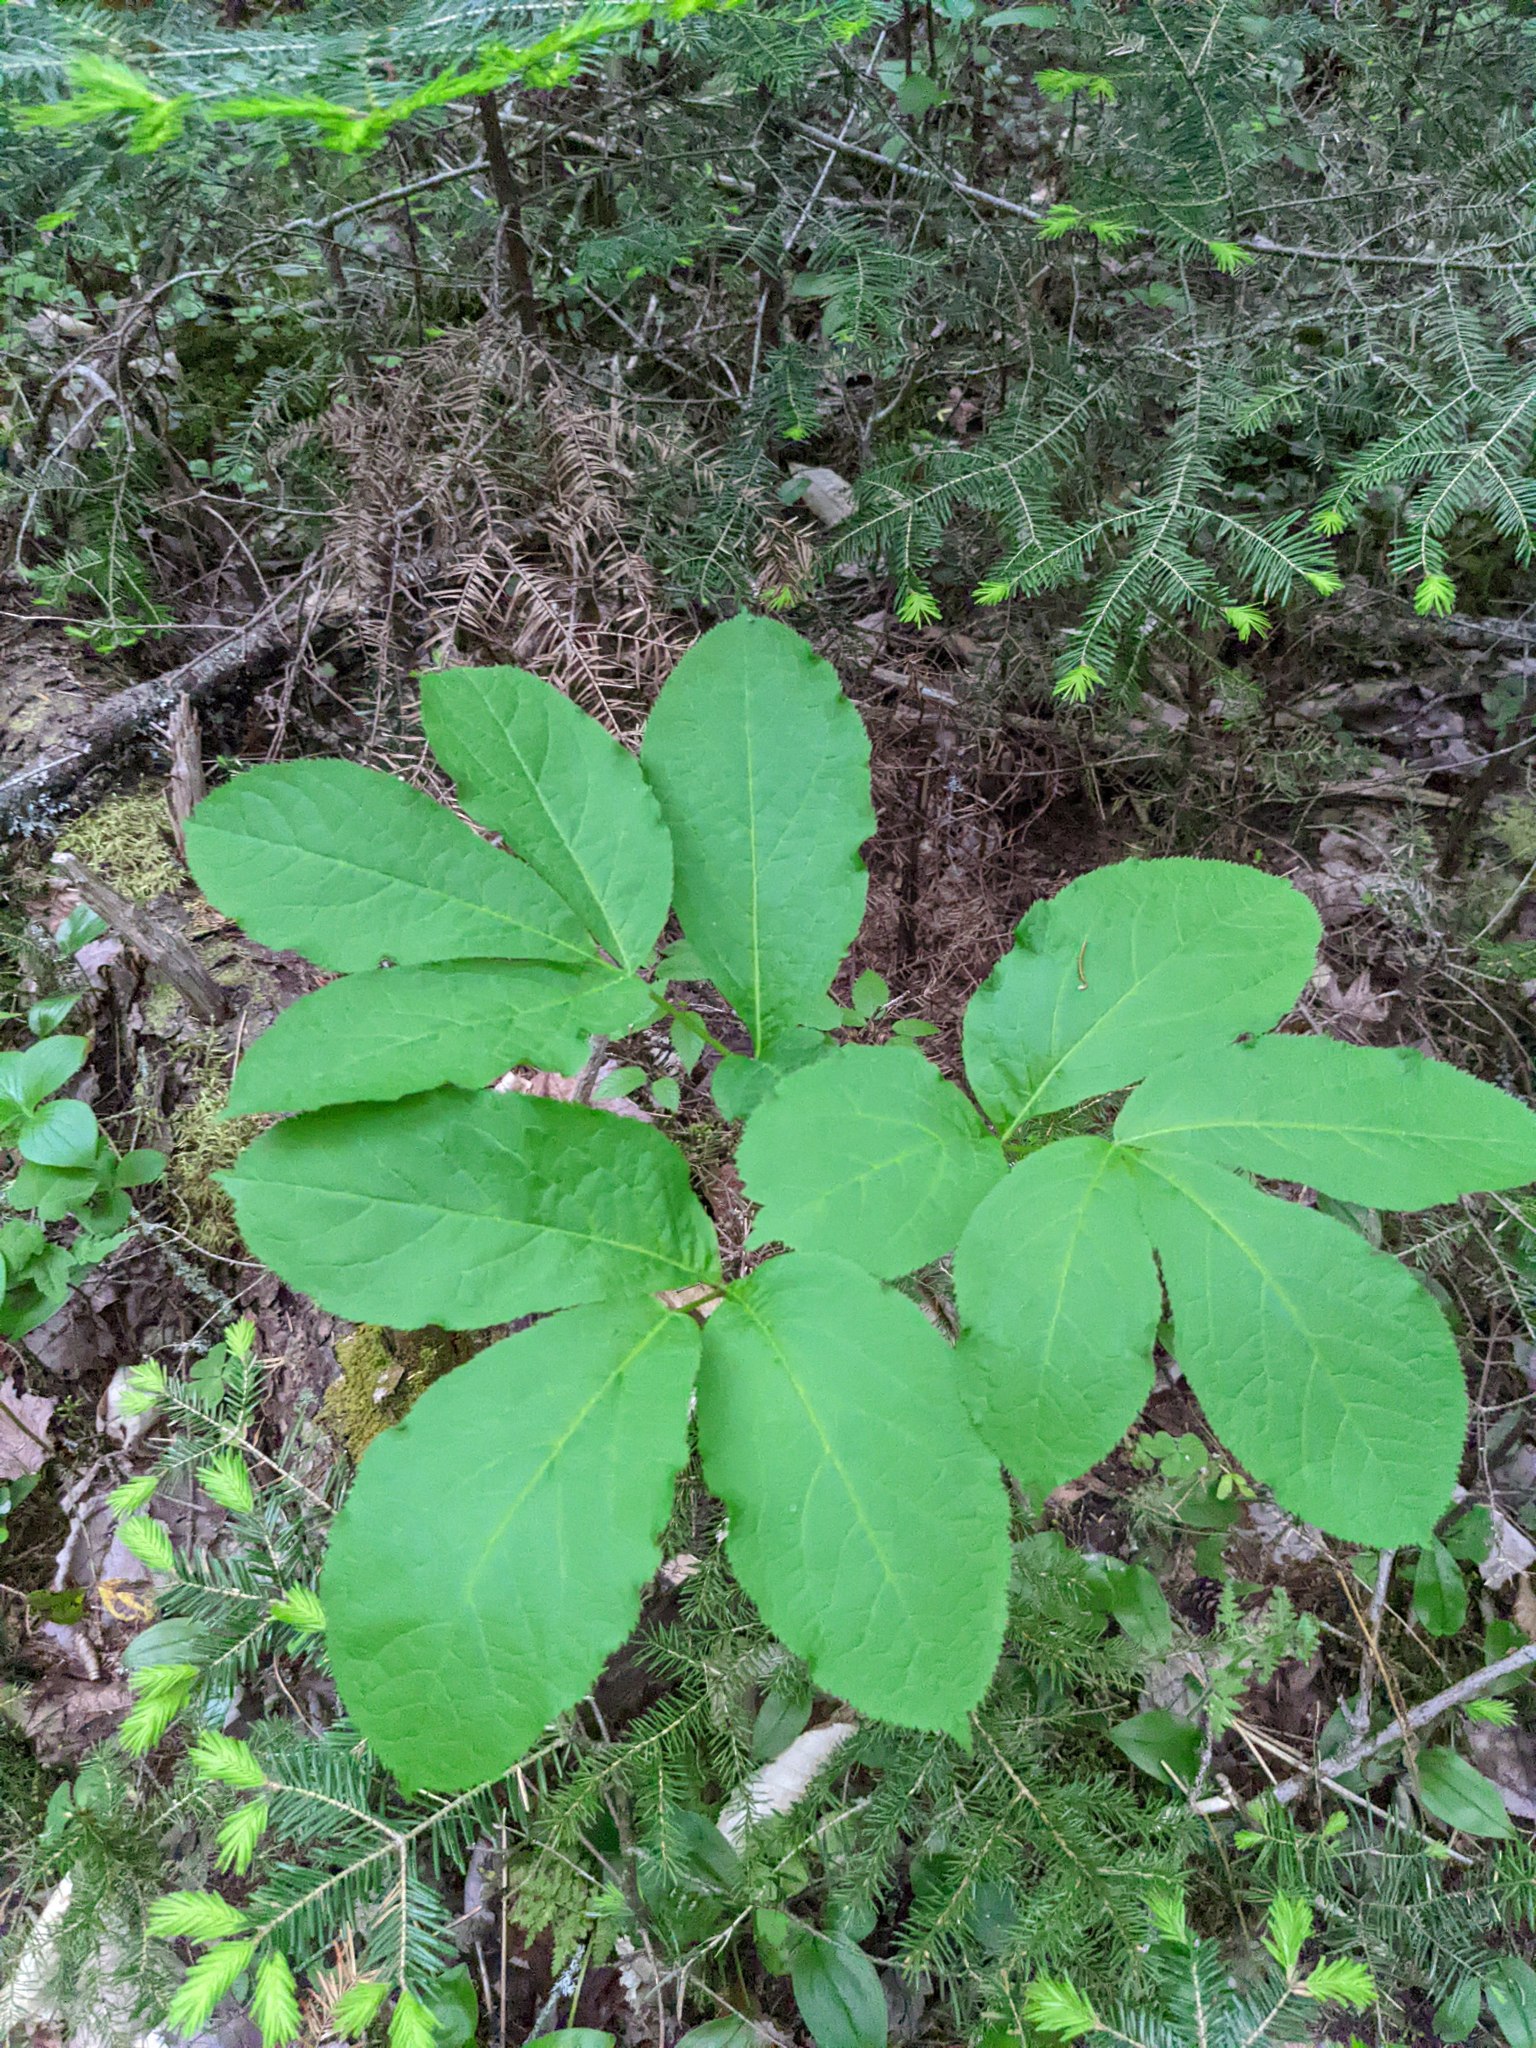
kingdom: Plantae
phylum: Tracheophyta
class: Magnoliopsida
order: Apiales
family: Araliaceae
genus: Aralia
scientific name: Aralia nudicaulis
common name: Wild sarsaparilla
